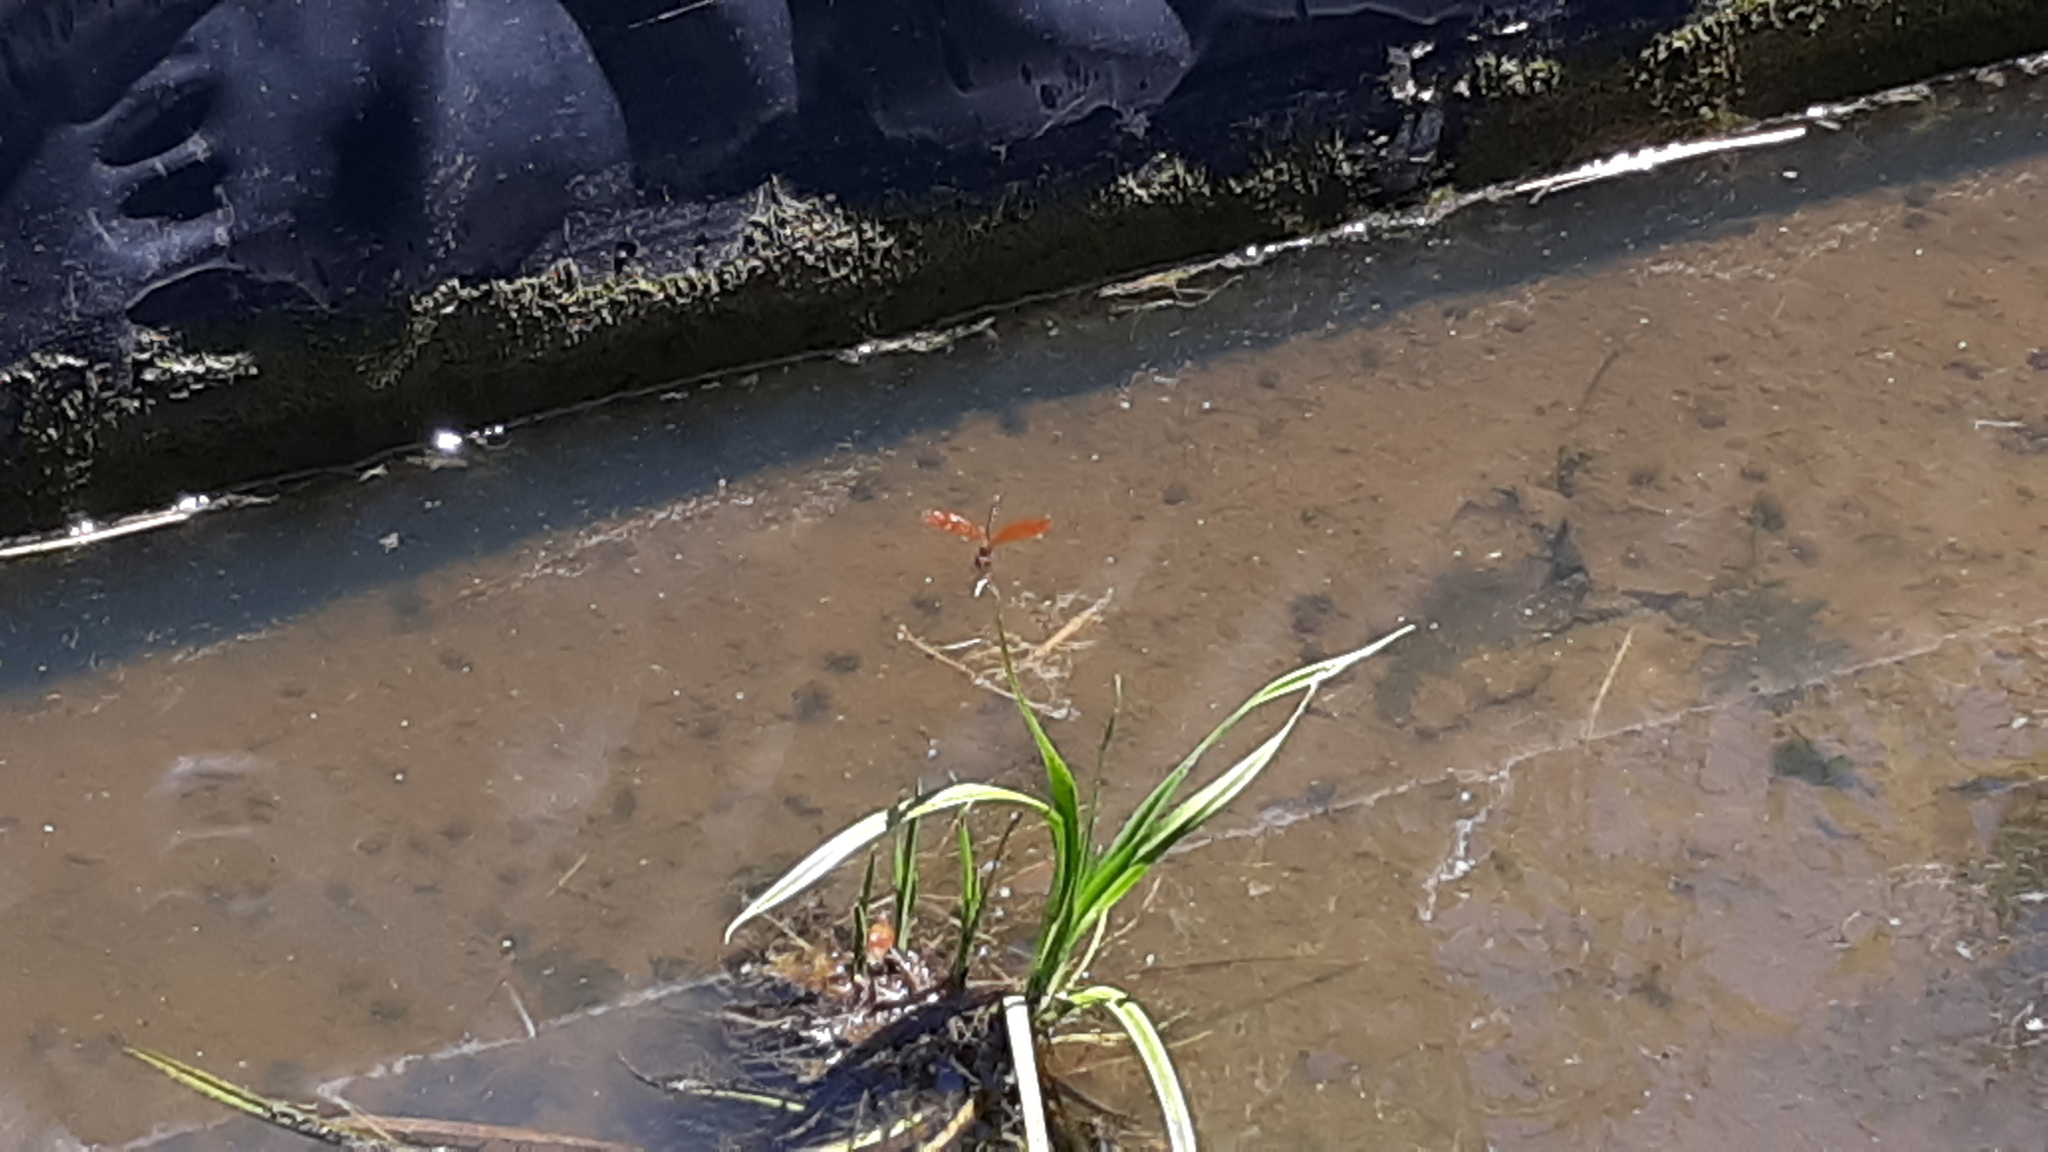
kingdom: Animalia
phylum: Arthropoda
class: Insecta
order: Odonata
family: Libellulidae
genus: Perithemis
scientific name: Perithemis tenera
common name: Eastern amberwing
